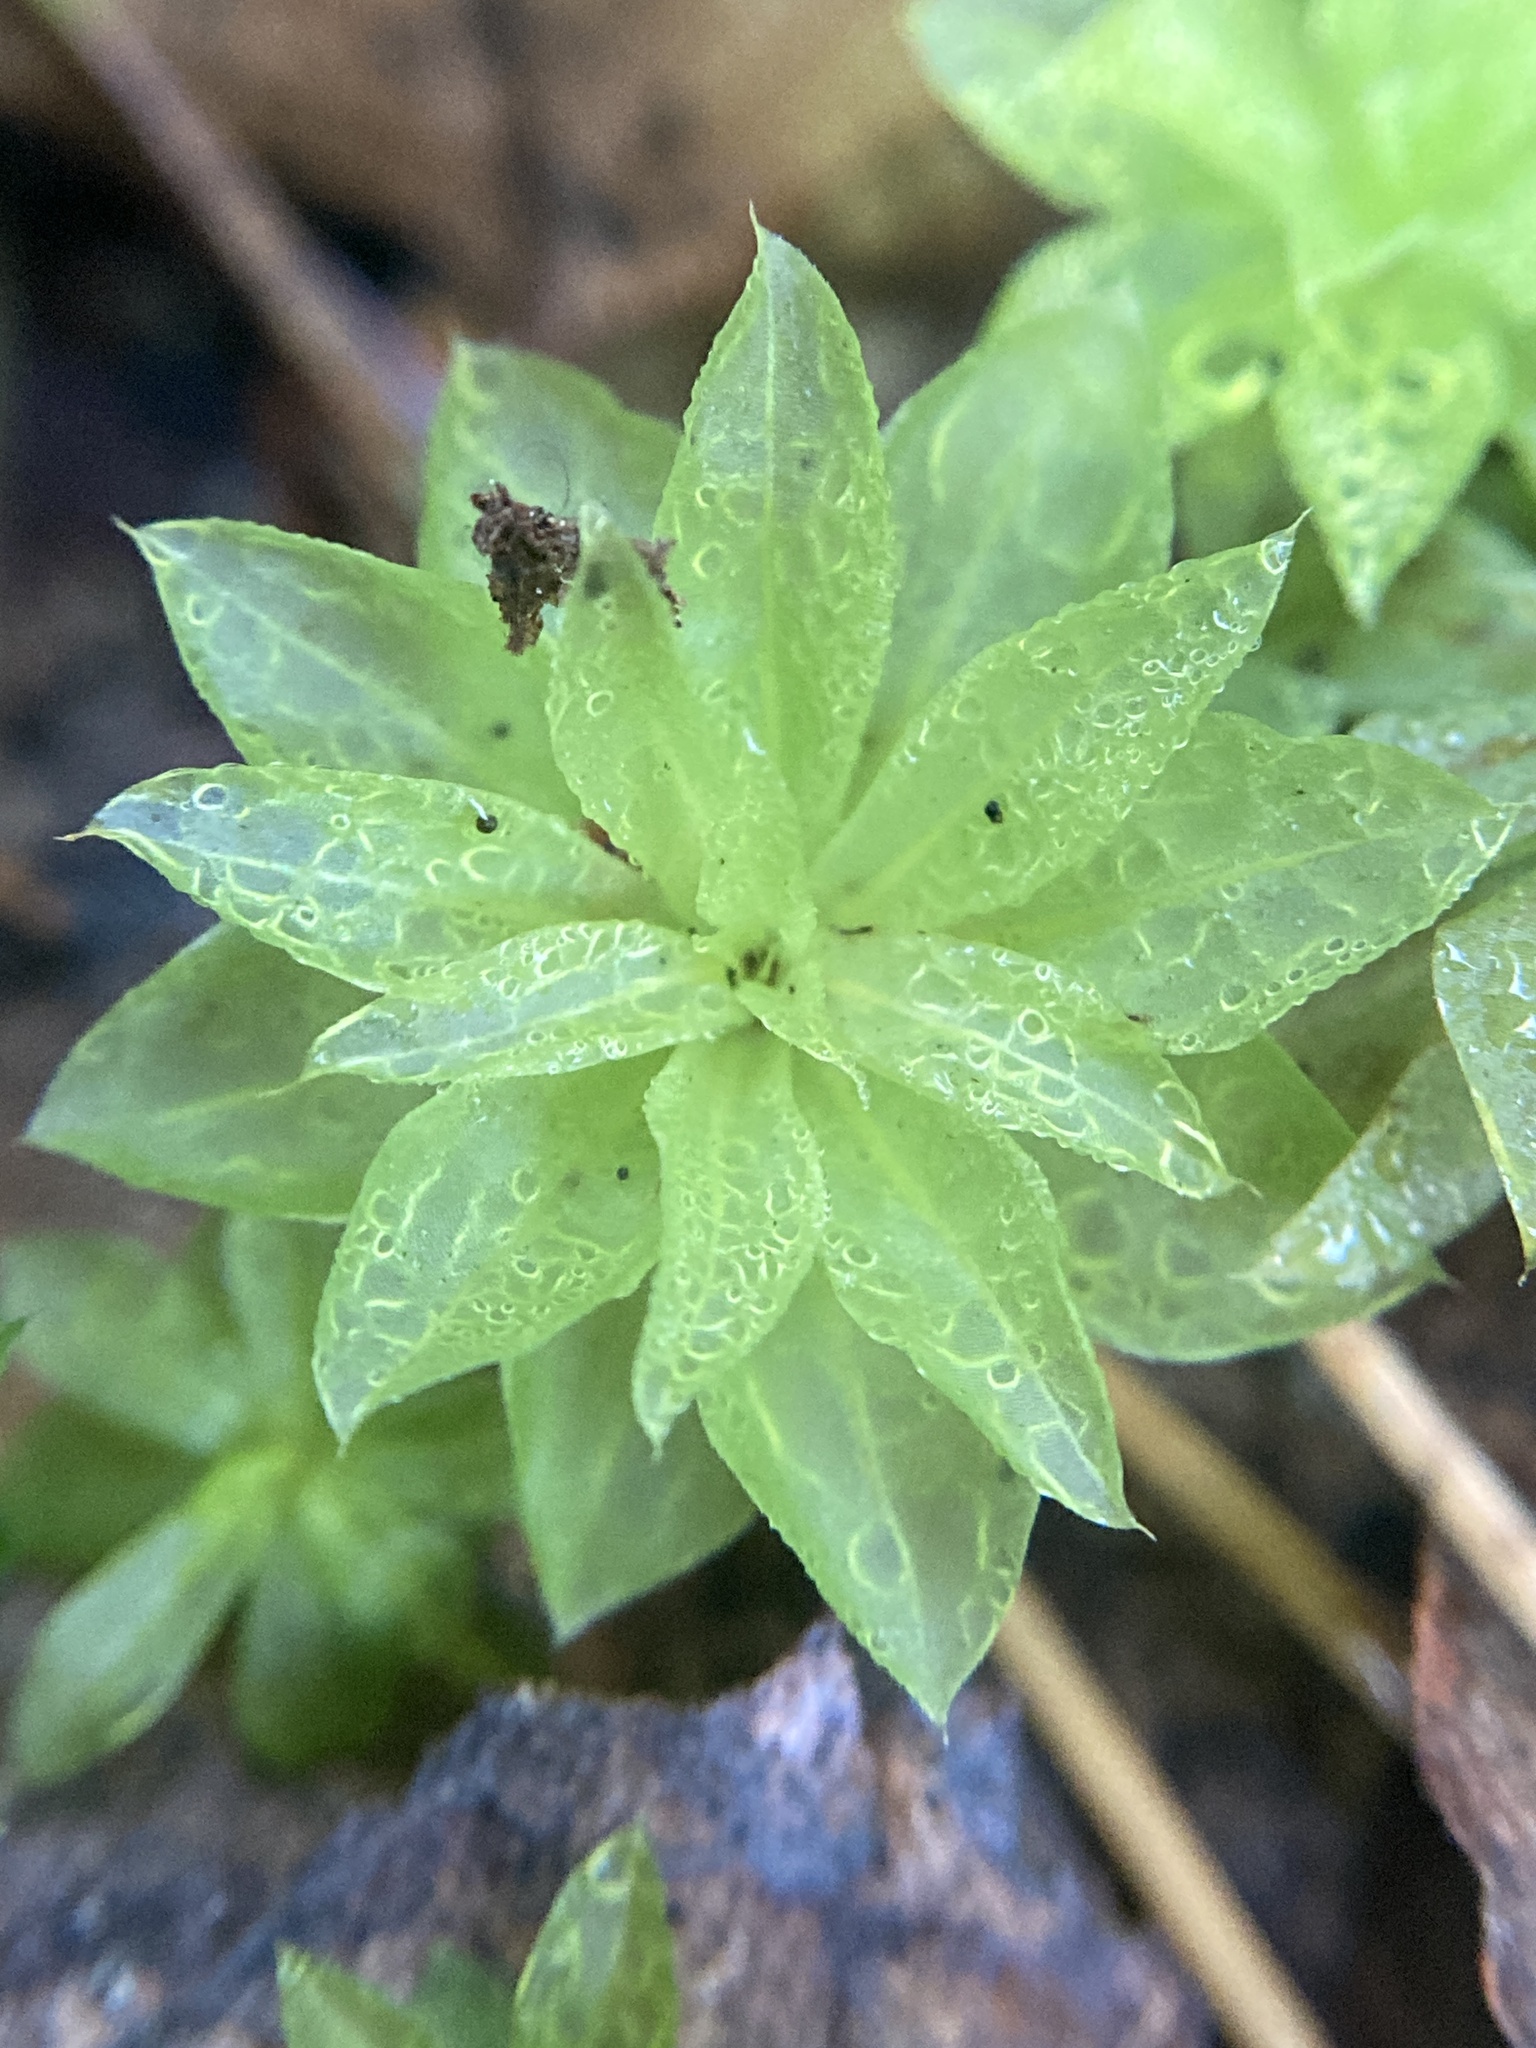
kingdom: Plantae
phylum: Bryophyta
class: Bryopsida
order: Bryales
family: Bryaceae
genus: Rhodobryum
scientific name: Rhodobryum roseum
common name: Rose-moss
